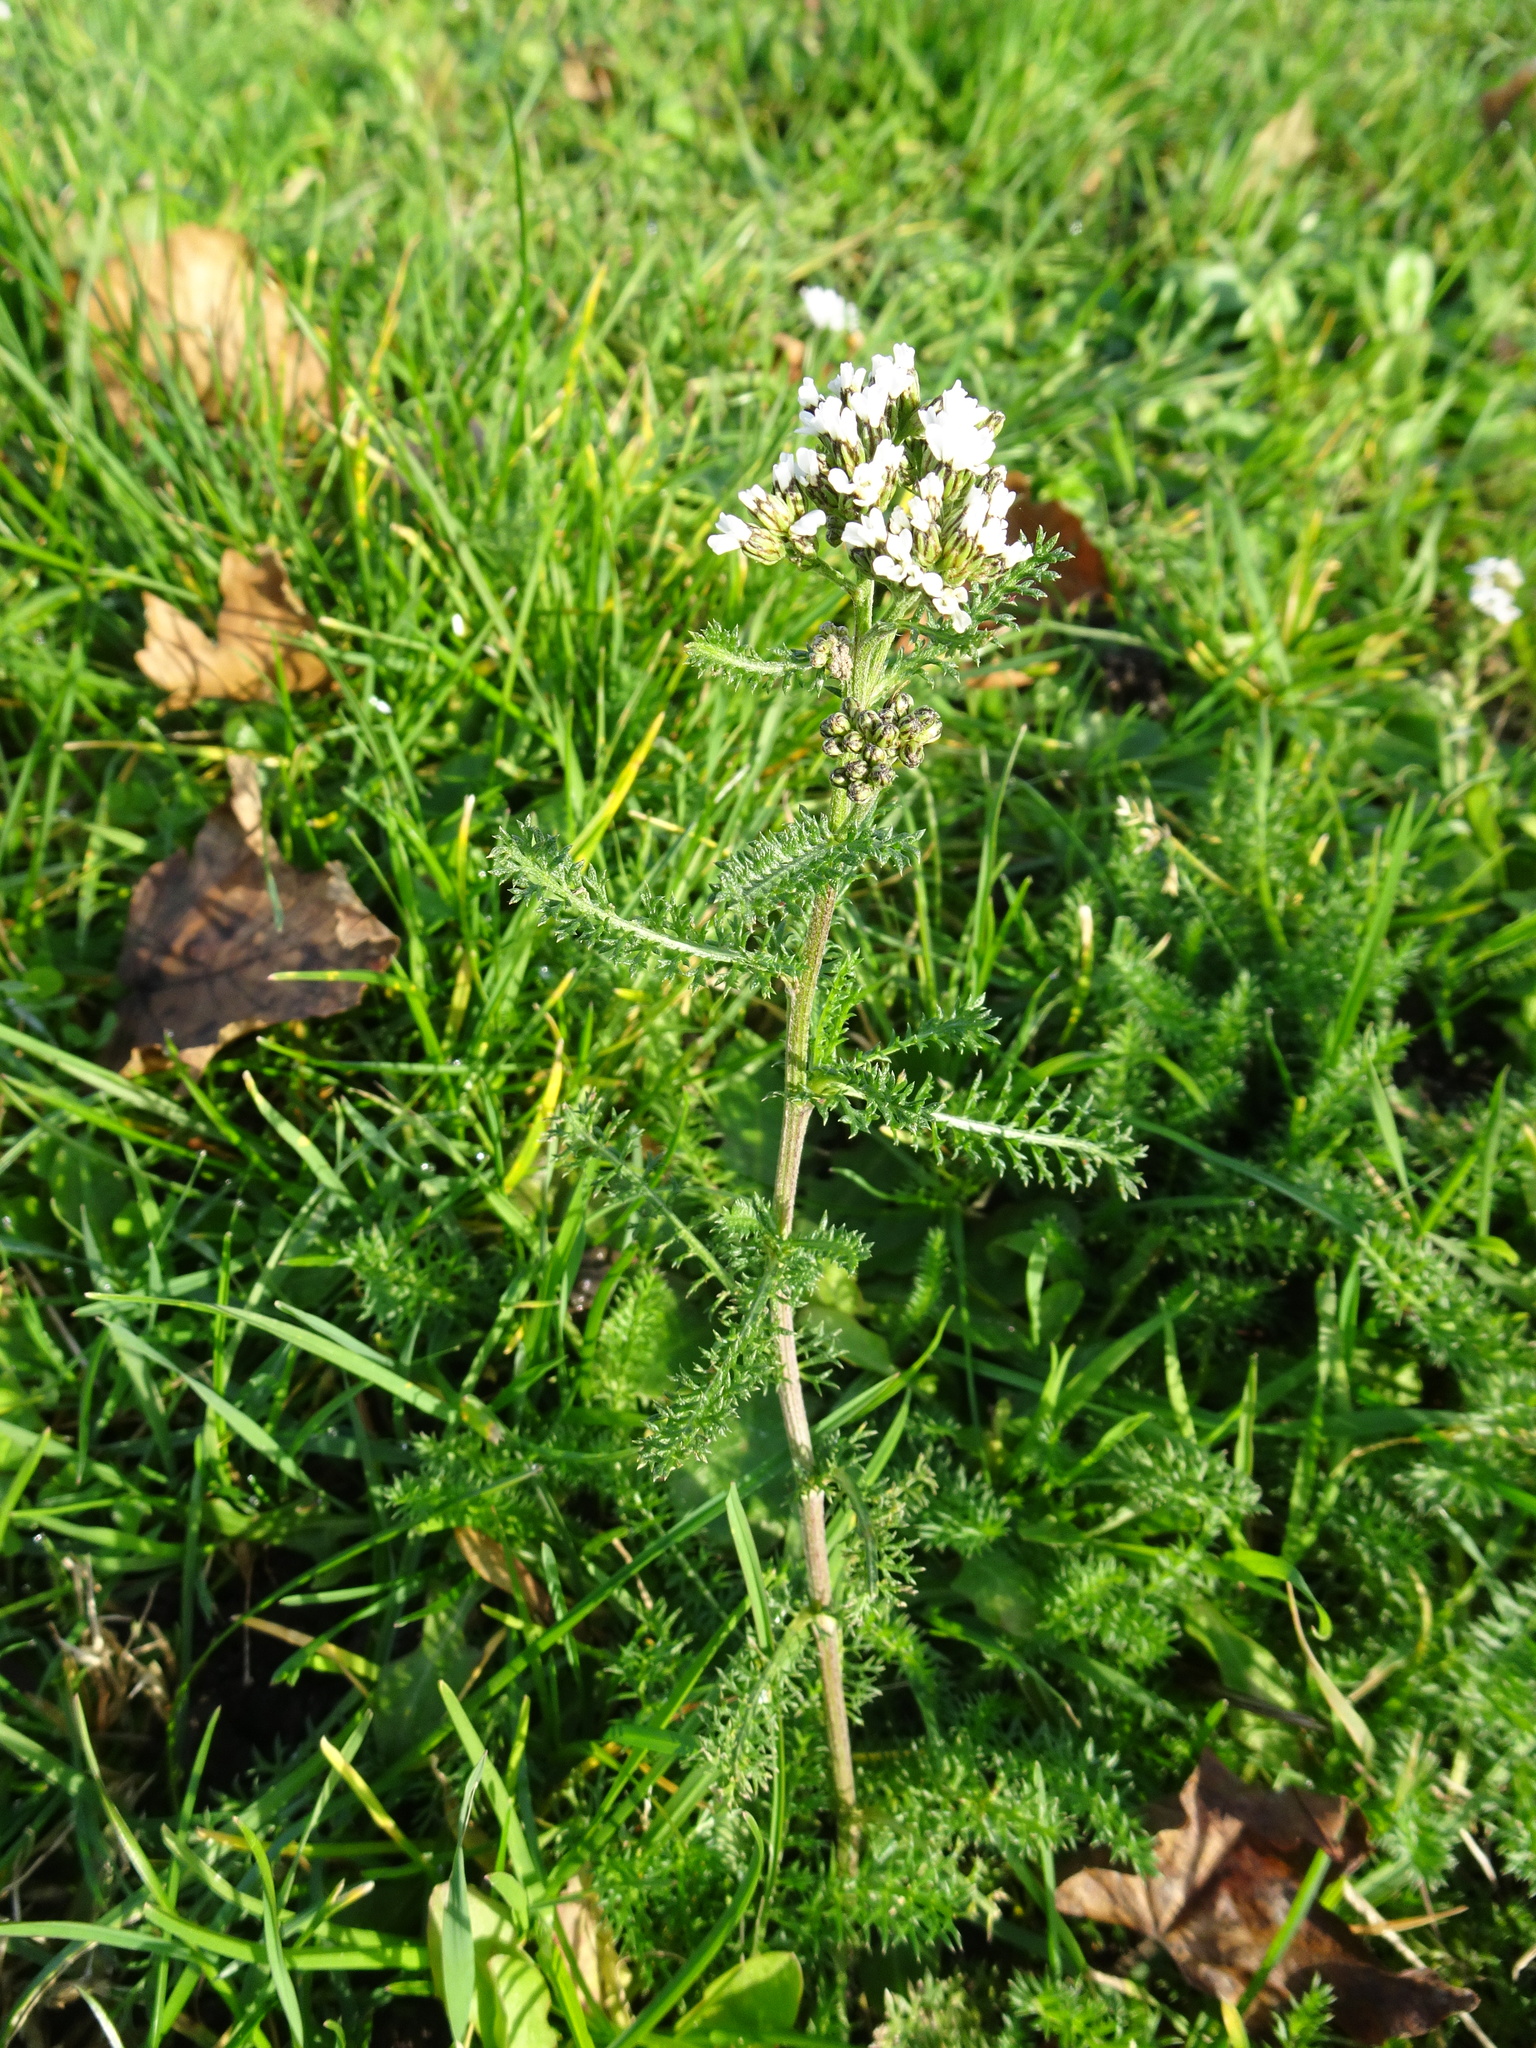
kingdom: Plantae
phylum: Tracheophyta
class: Magnoliopsida
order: Asterales
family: Asteraceae
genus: Achillea
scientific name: Achillea millefolium
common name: Yarrow
